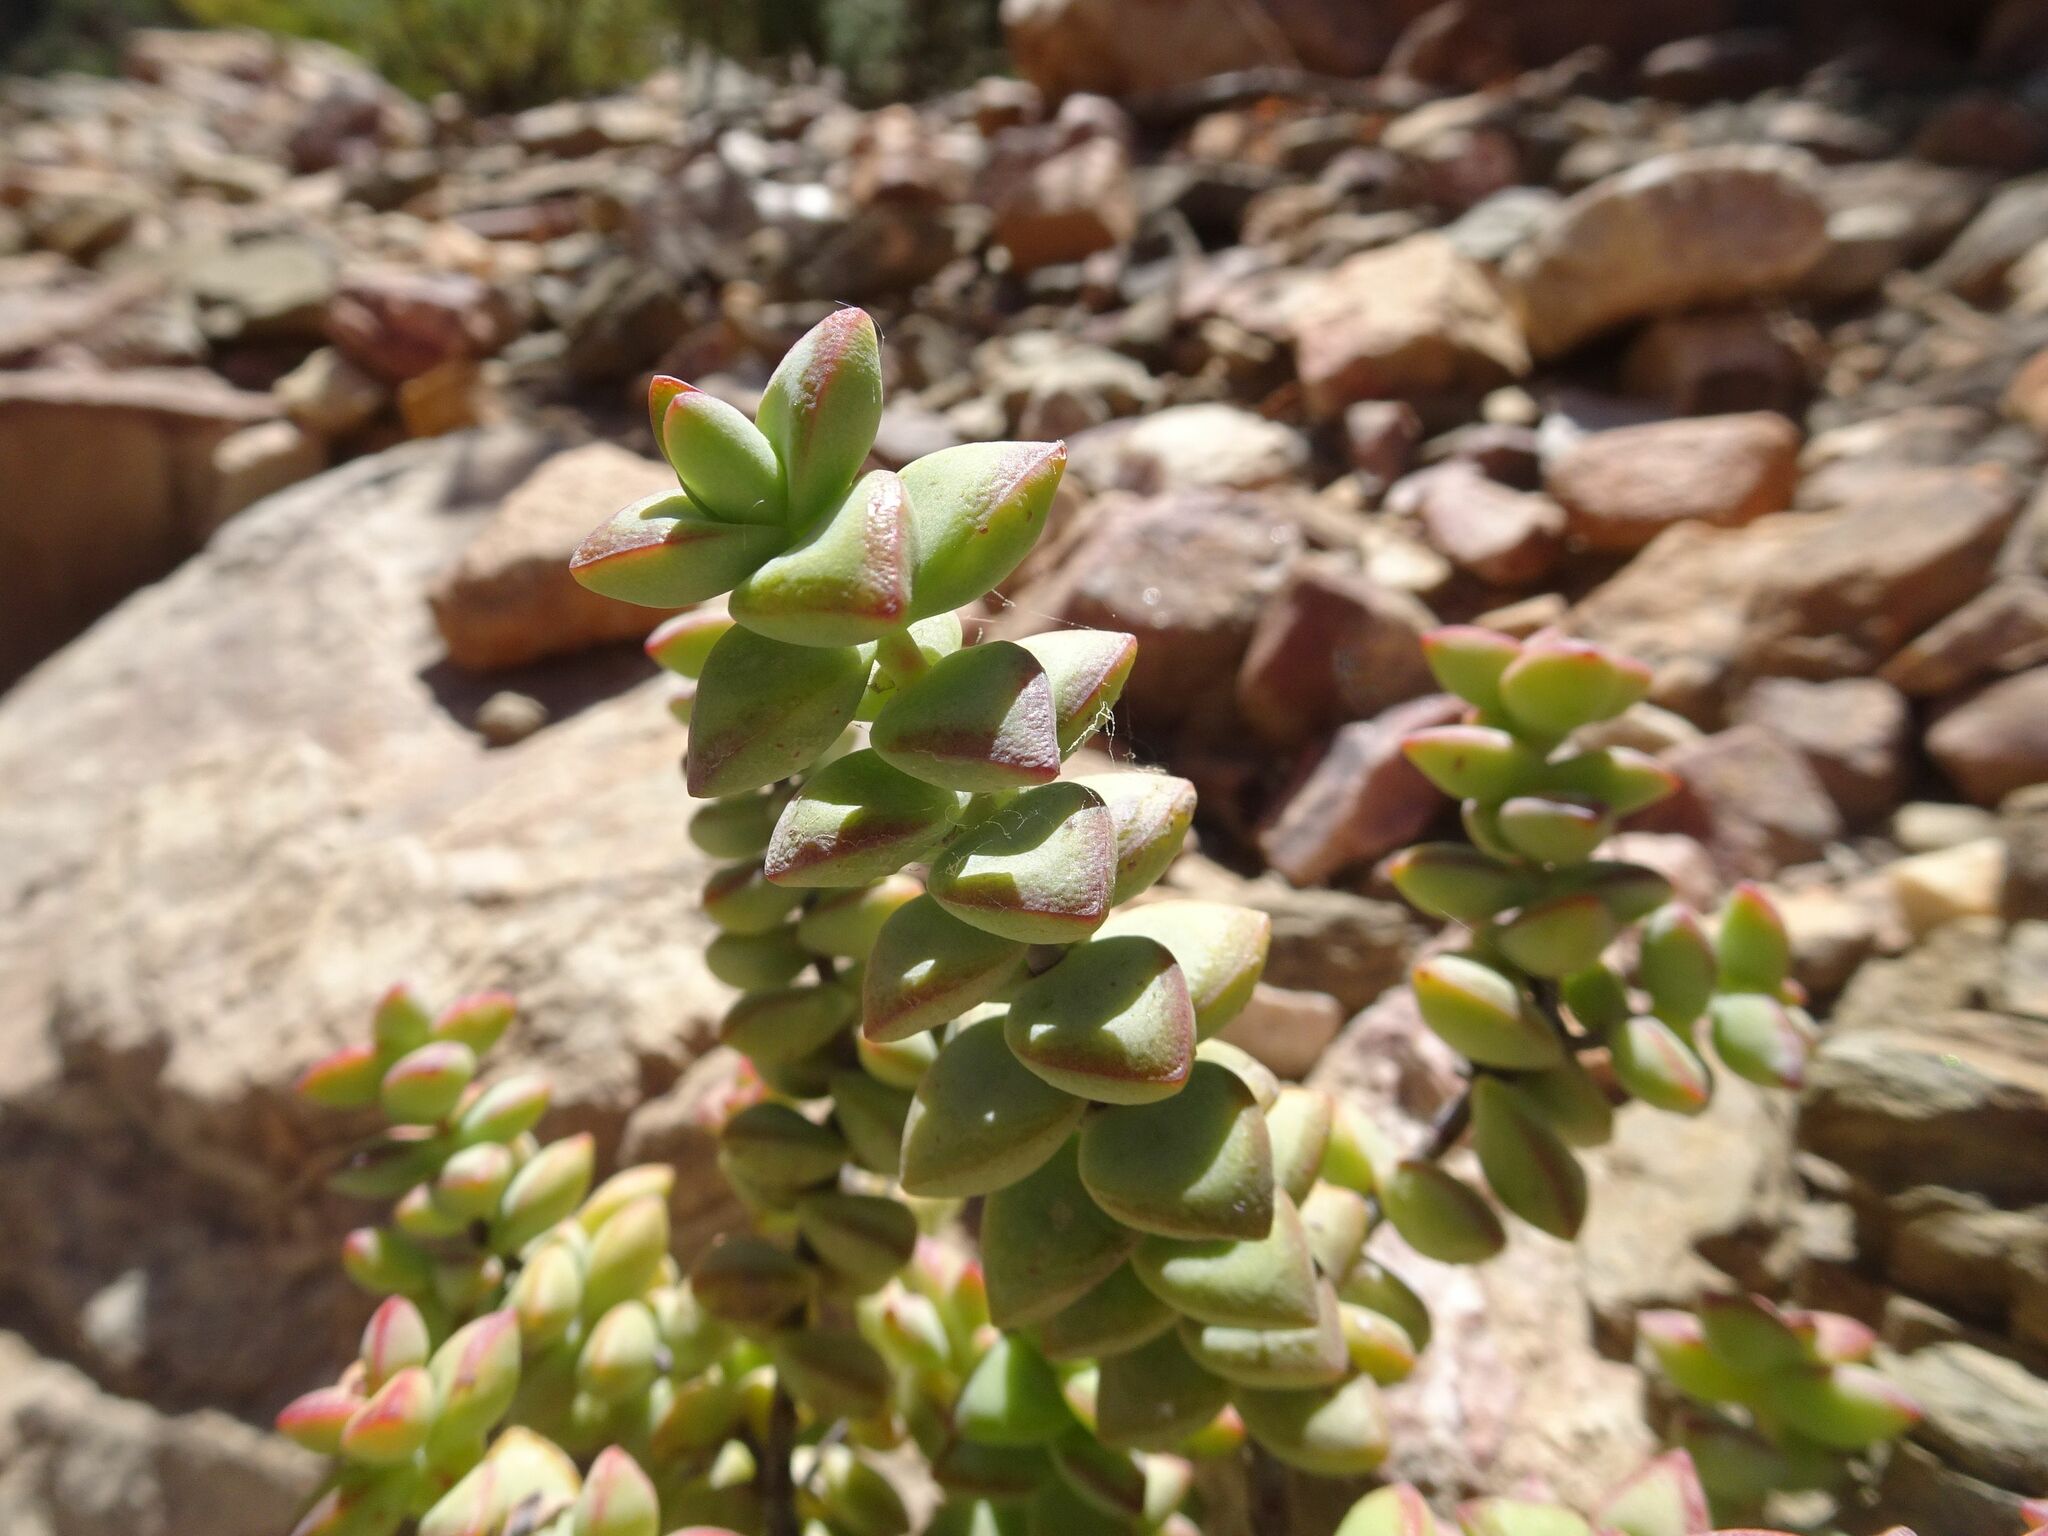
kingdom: Plantae
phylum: Tracheophyta
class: Magnoliopsida
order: Saxifragales
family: Crassulaceae
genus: Crassula
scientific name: Crassula rupestris
